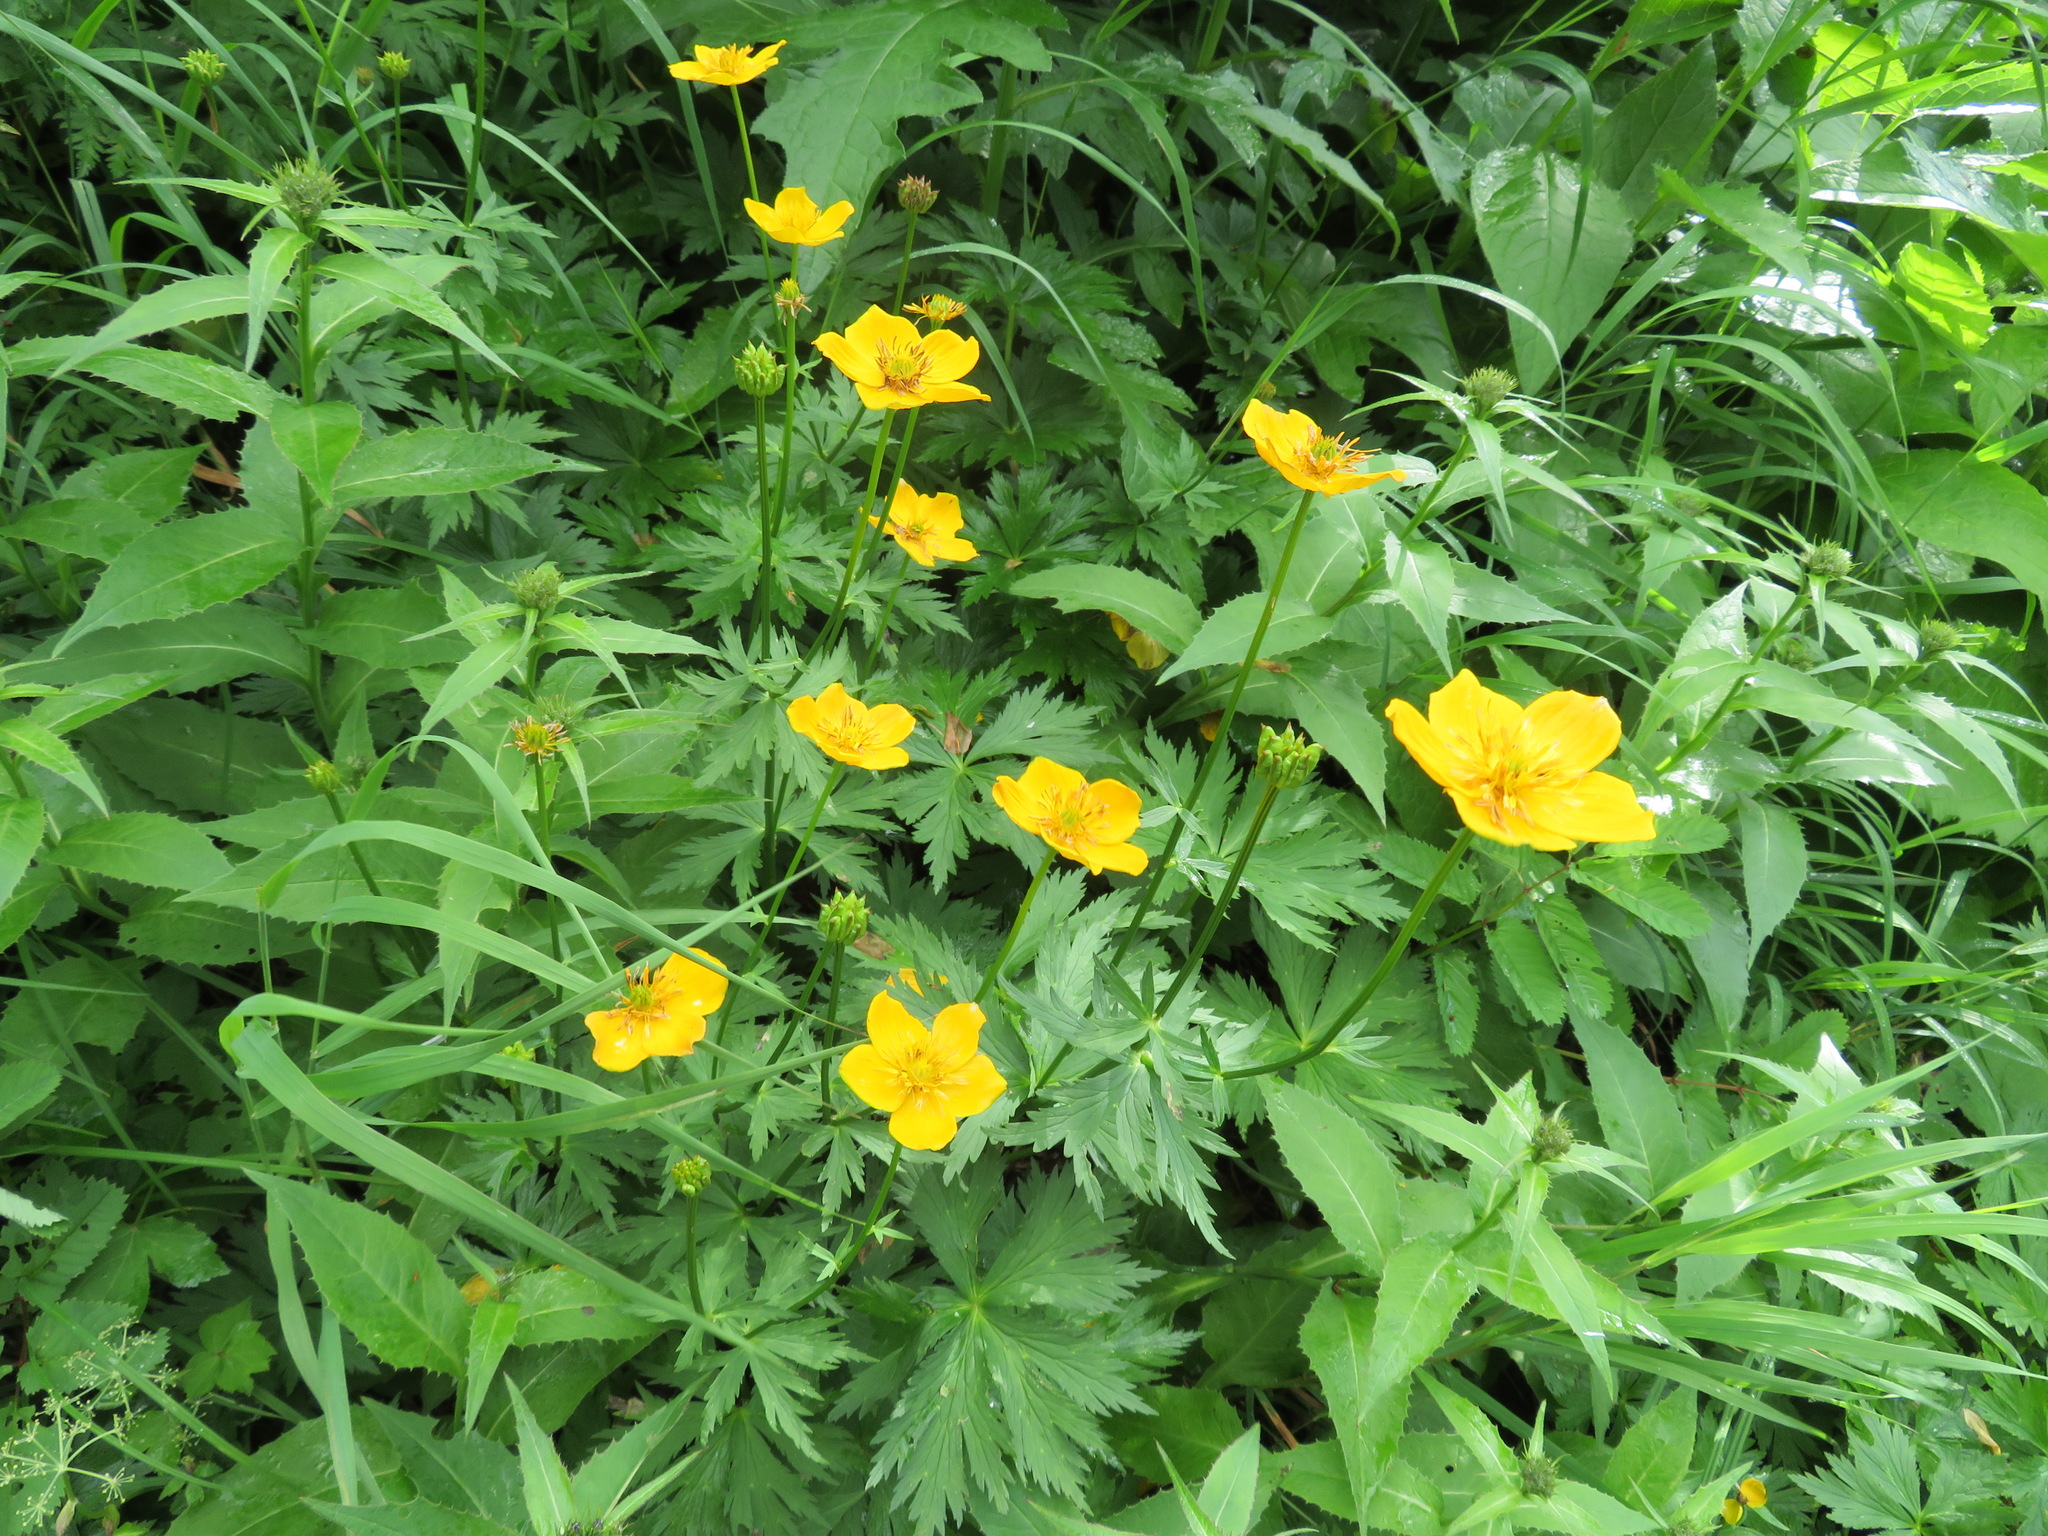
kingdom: Plantae
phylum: Tracheophyta
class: Magnoliopsida
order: Ranunculales
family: Ranunculaceae
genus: Trollius
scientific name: Trollius riederianus
